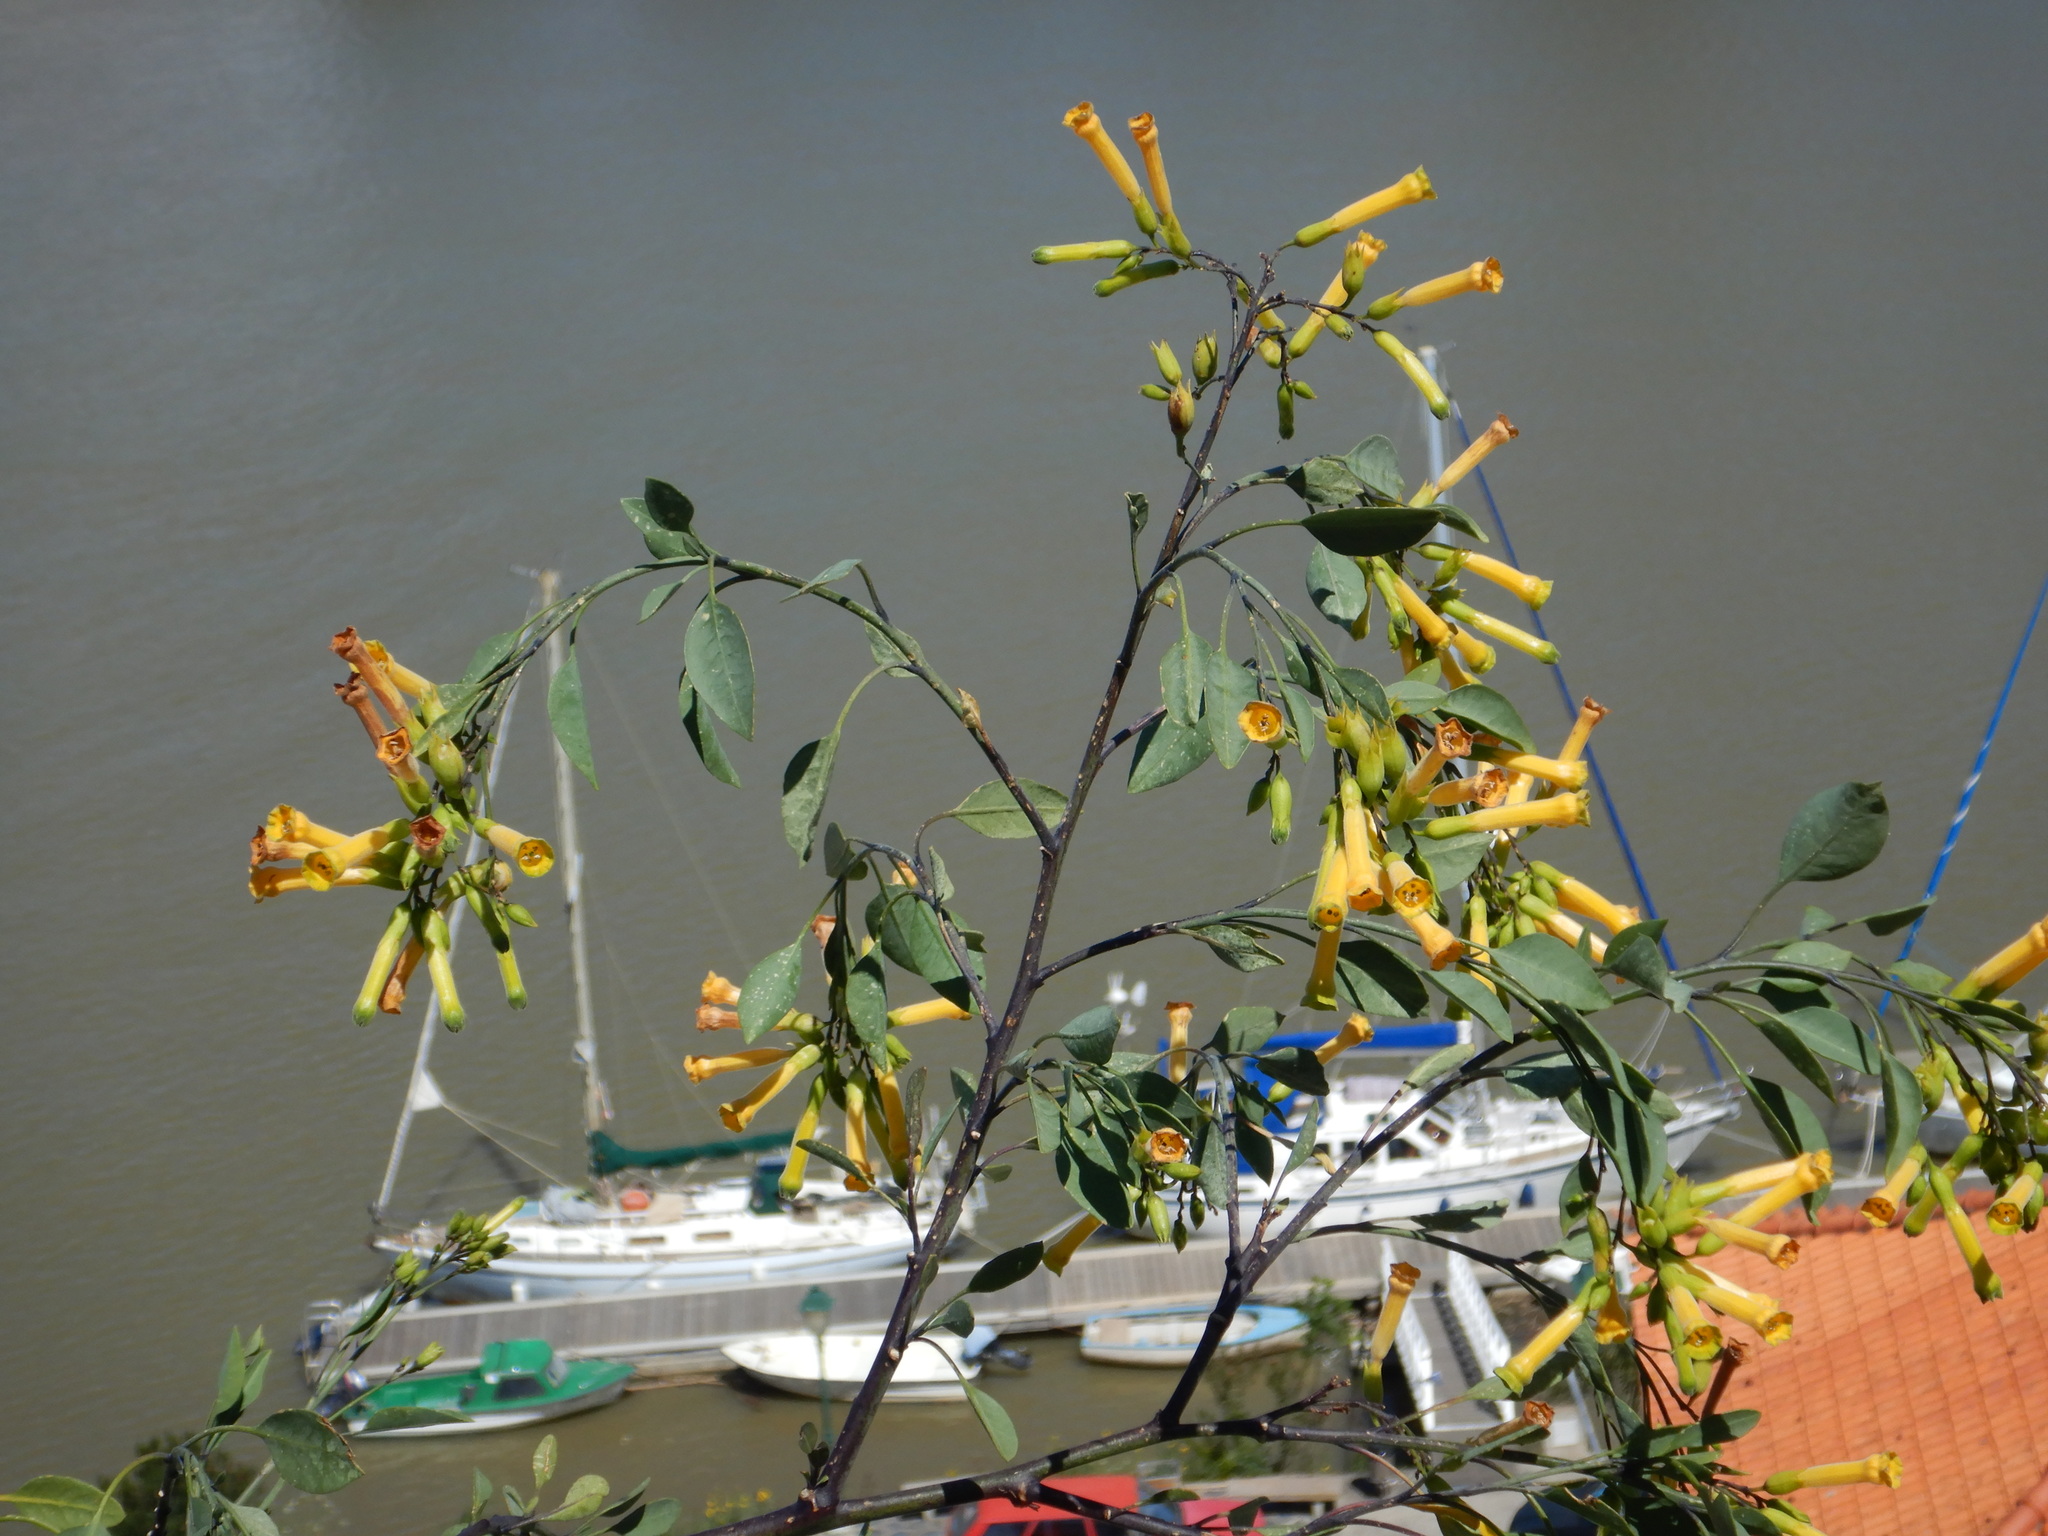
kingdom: Plantae
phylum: Tracheophyta
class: Magnoliopsida
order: Solanales
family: Solanaceae
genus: Nicotiana
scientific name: Nicotiana glauca
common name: Tree tobacco
